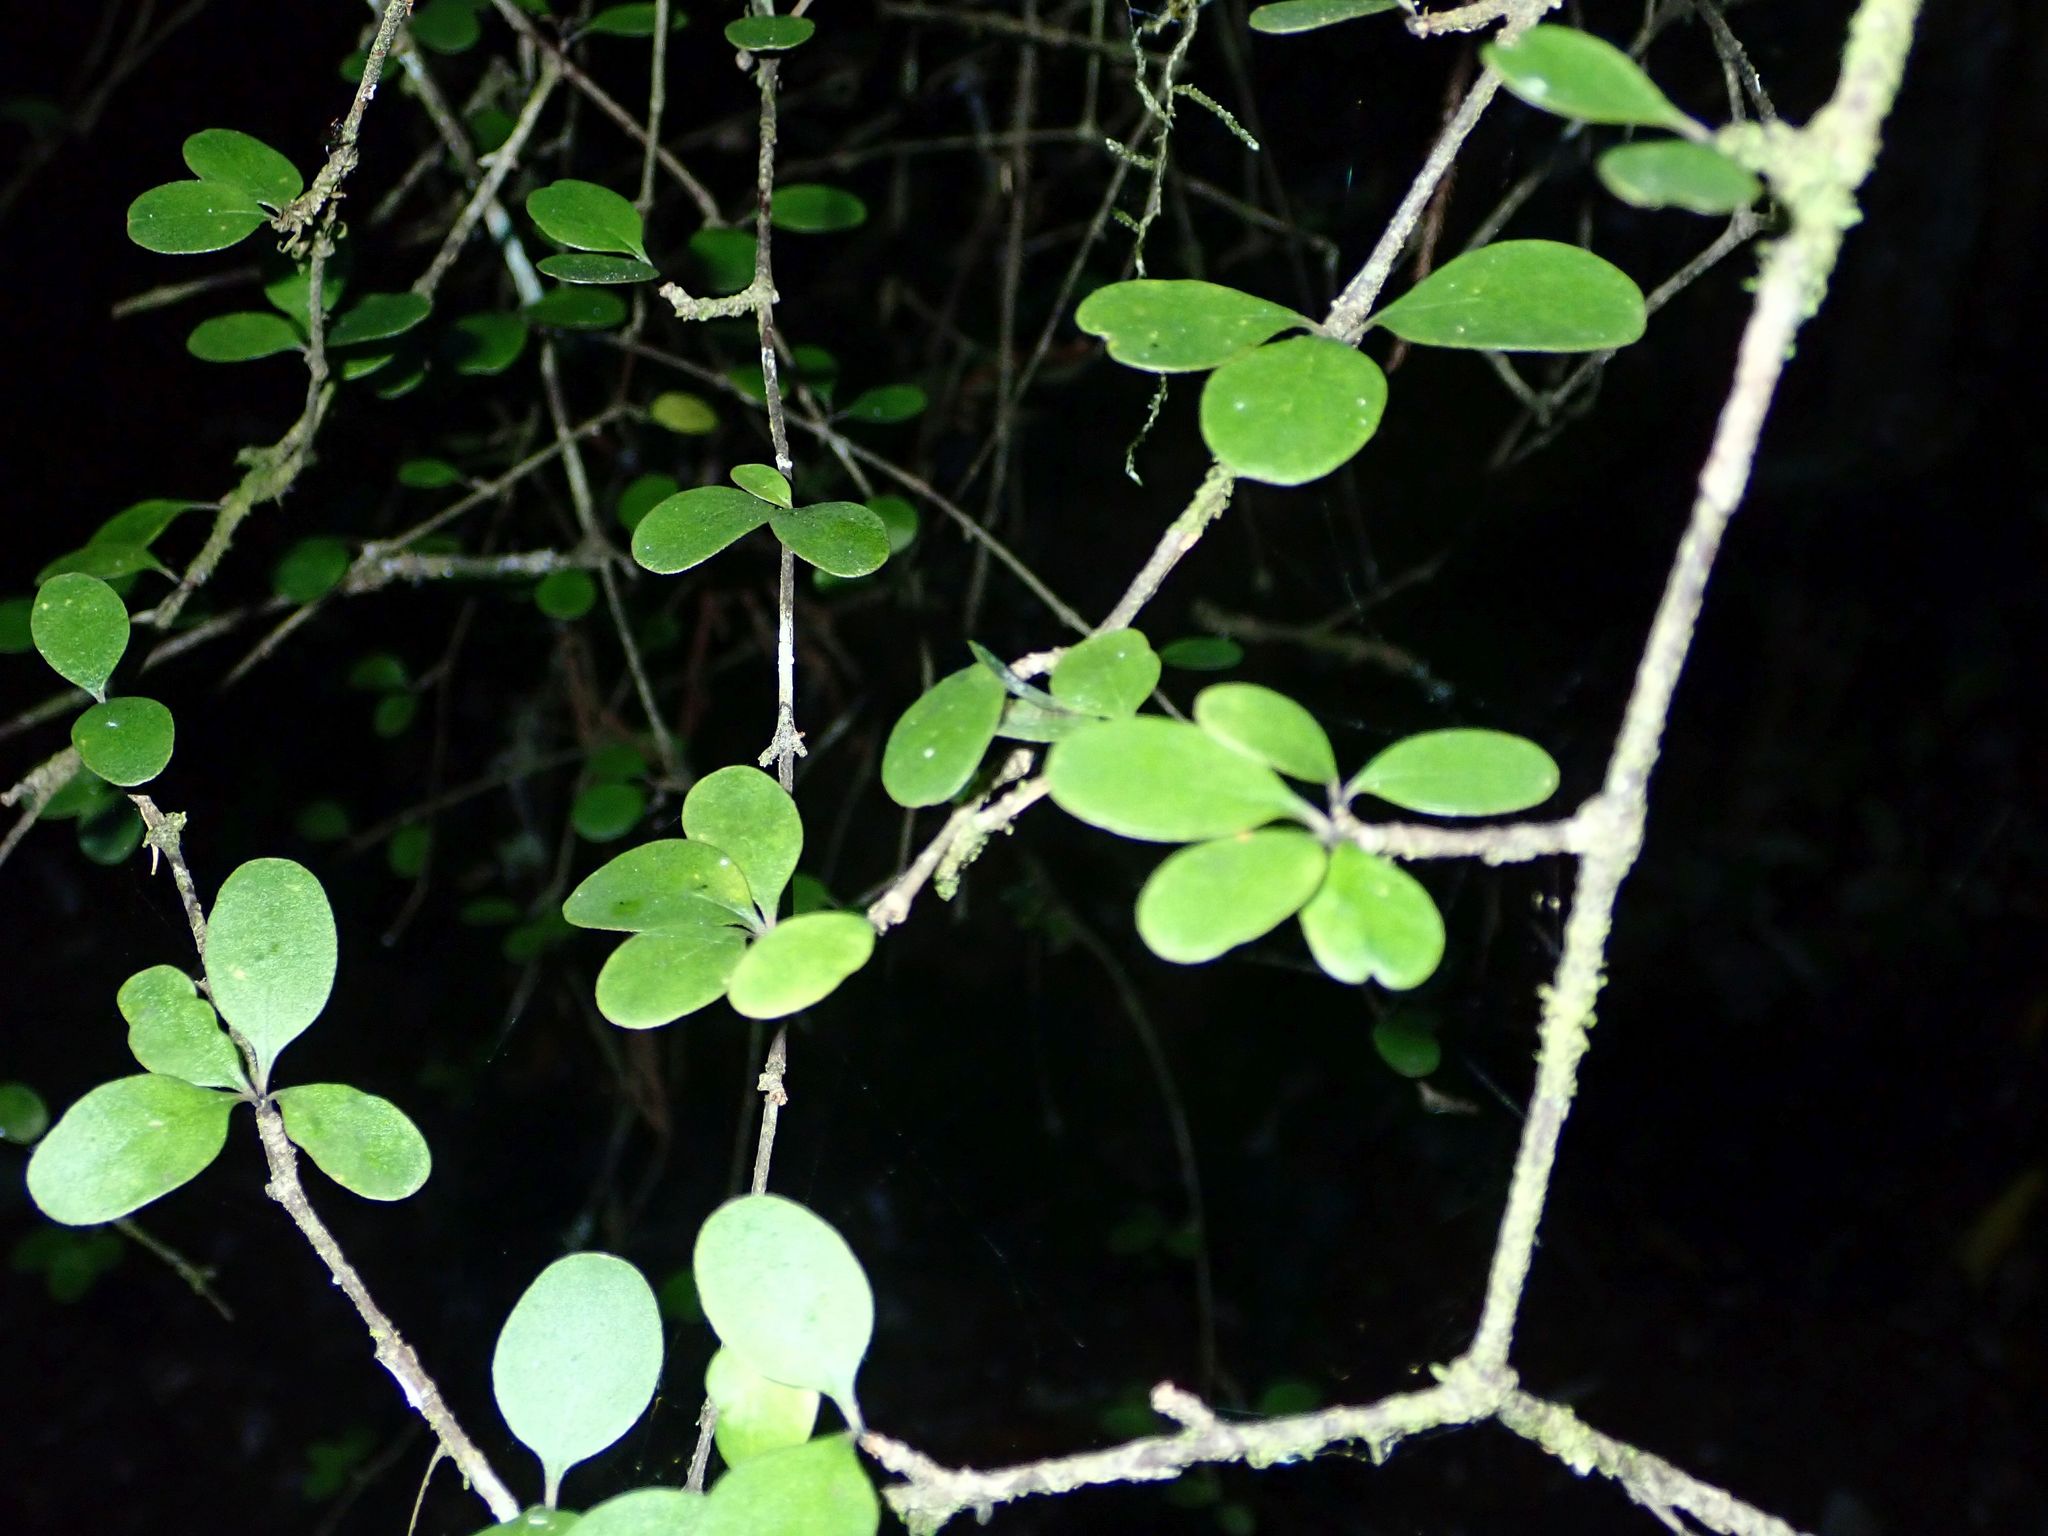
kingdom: Plantae
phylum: Tracheophyta
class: Magnoliopsida
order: Gentianales
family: Rubiaceae
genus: Coprosma
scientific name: Coprosma crassifolia
